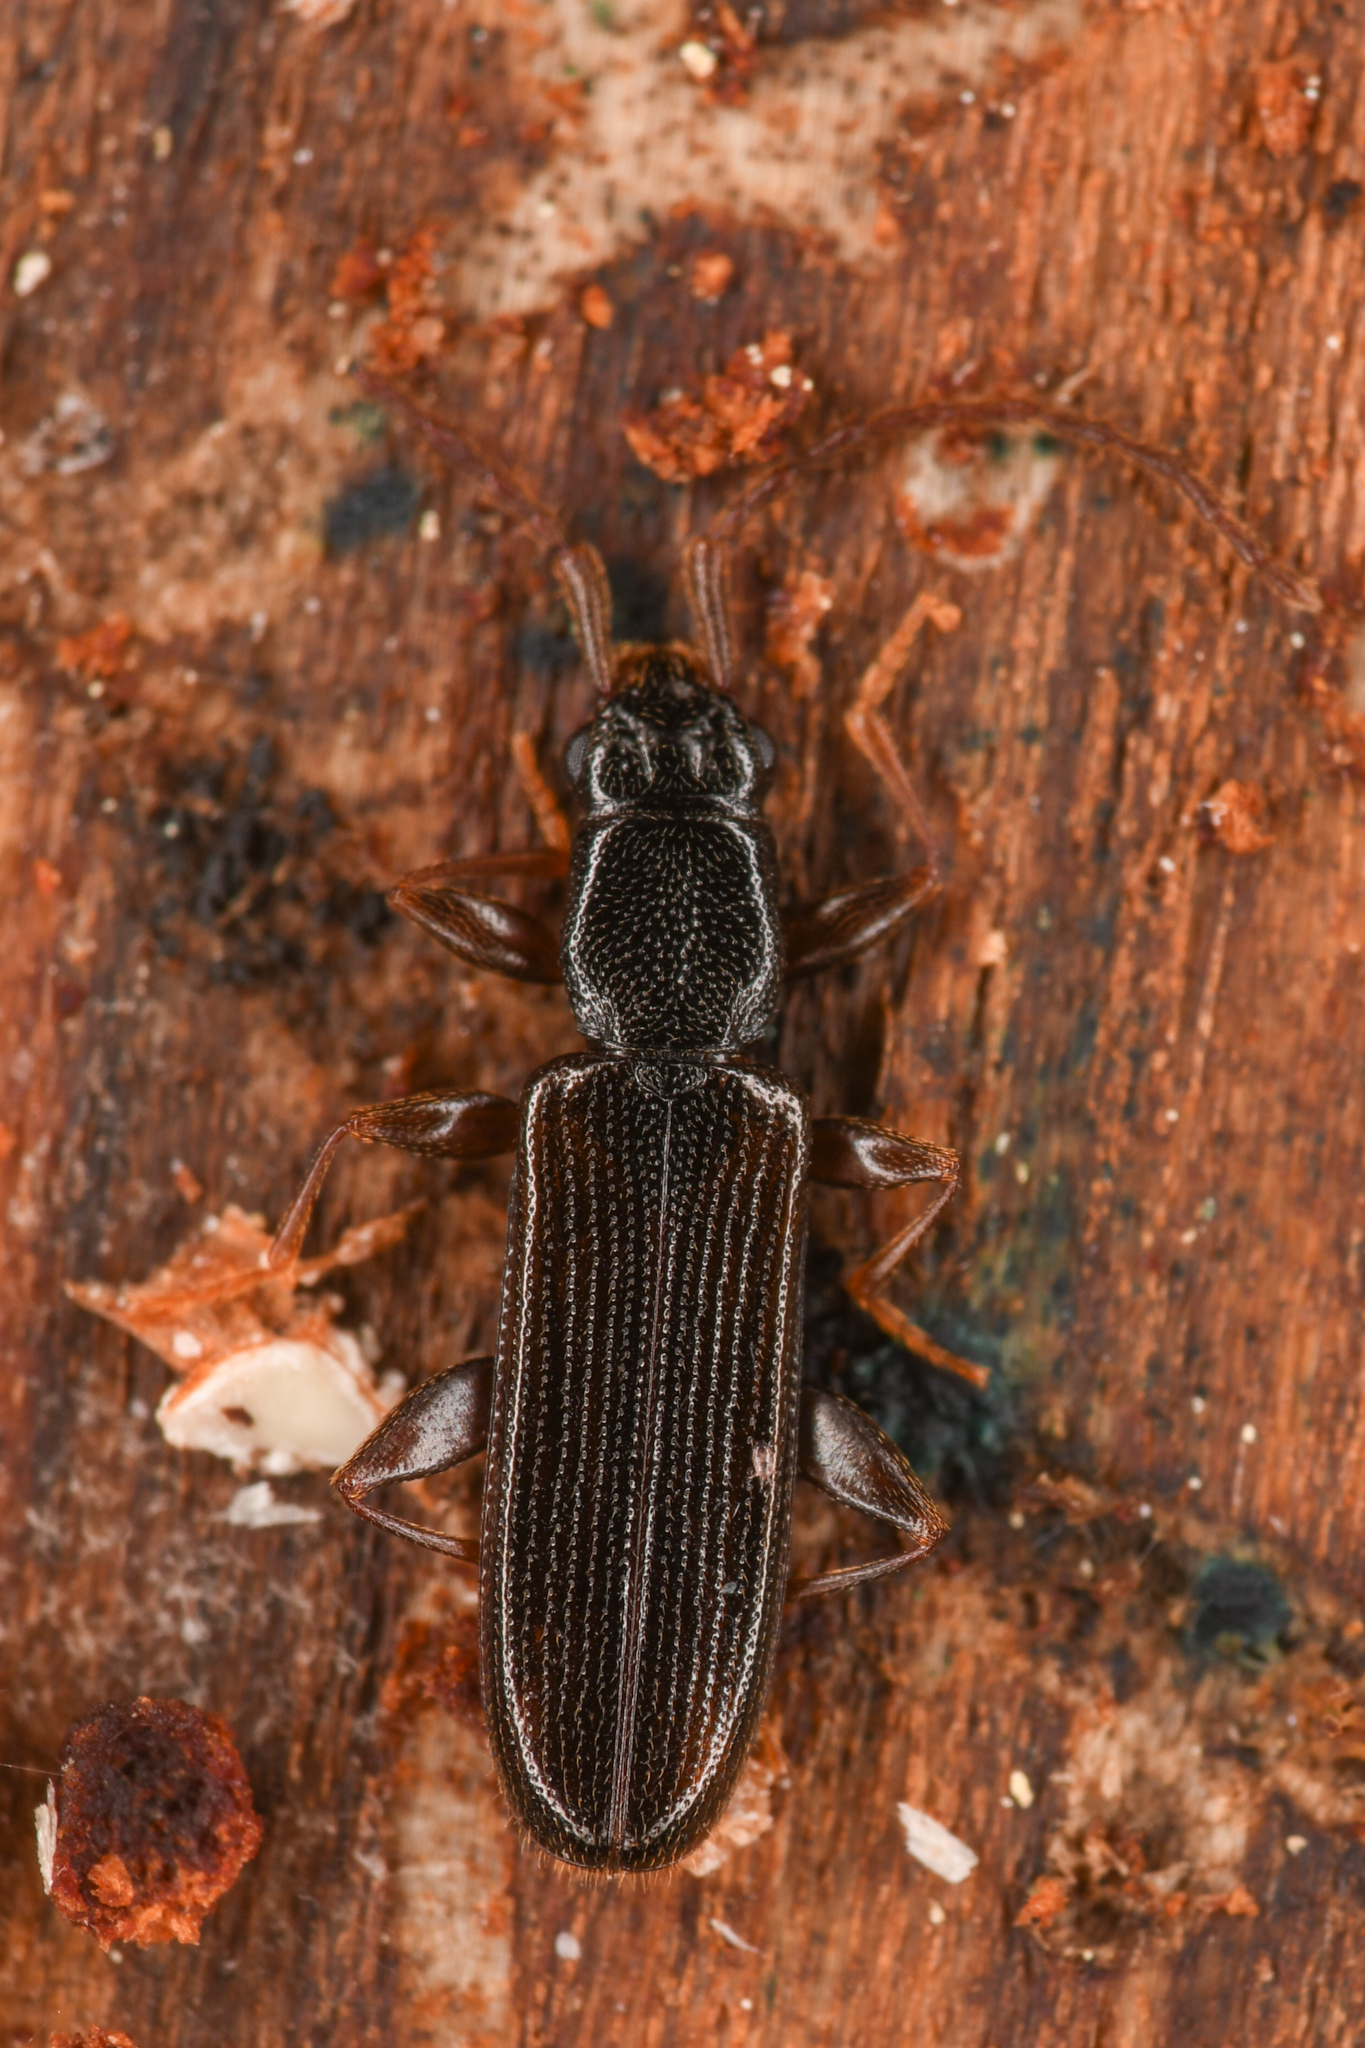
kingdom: Animalia
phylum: Arthropoda
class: Insecta
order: Coleoptera
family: Silvanidae
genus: Dendrophagus
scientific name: Dendrophagus cygnaei
